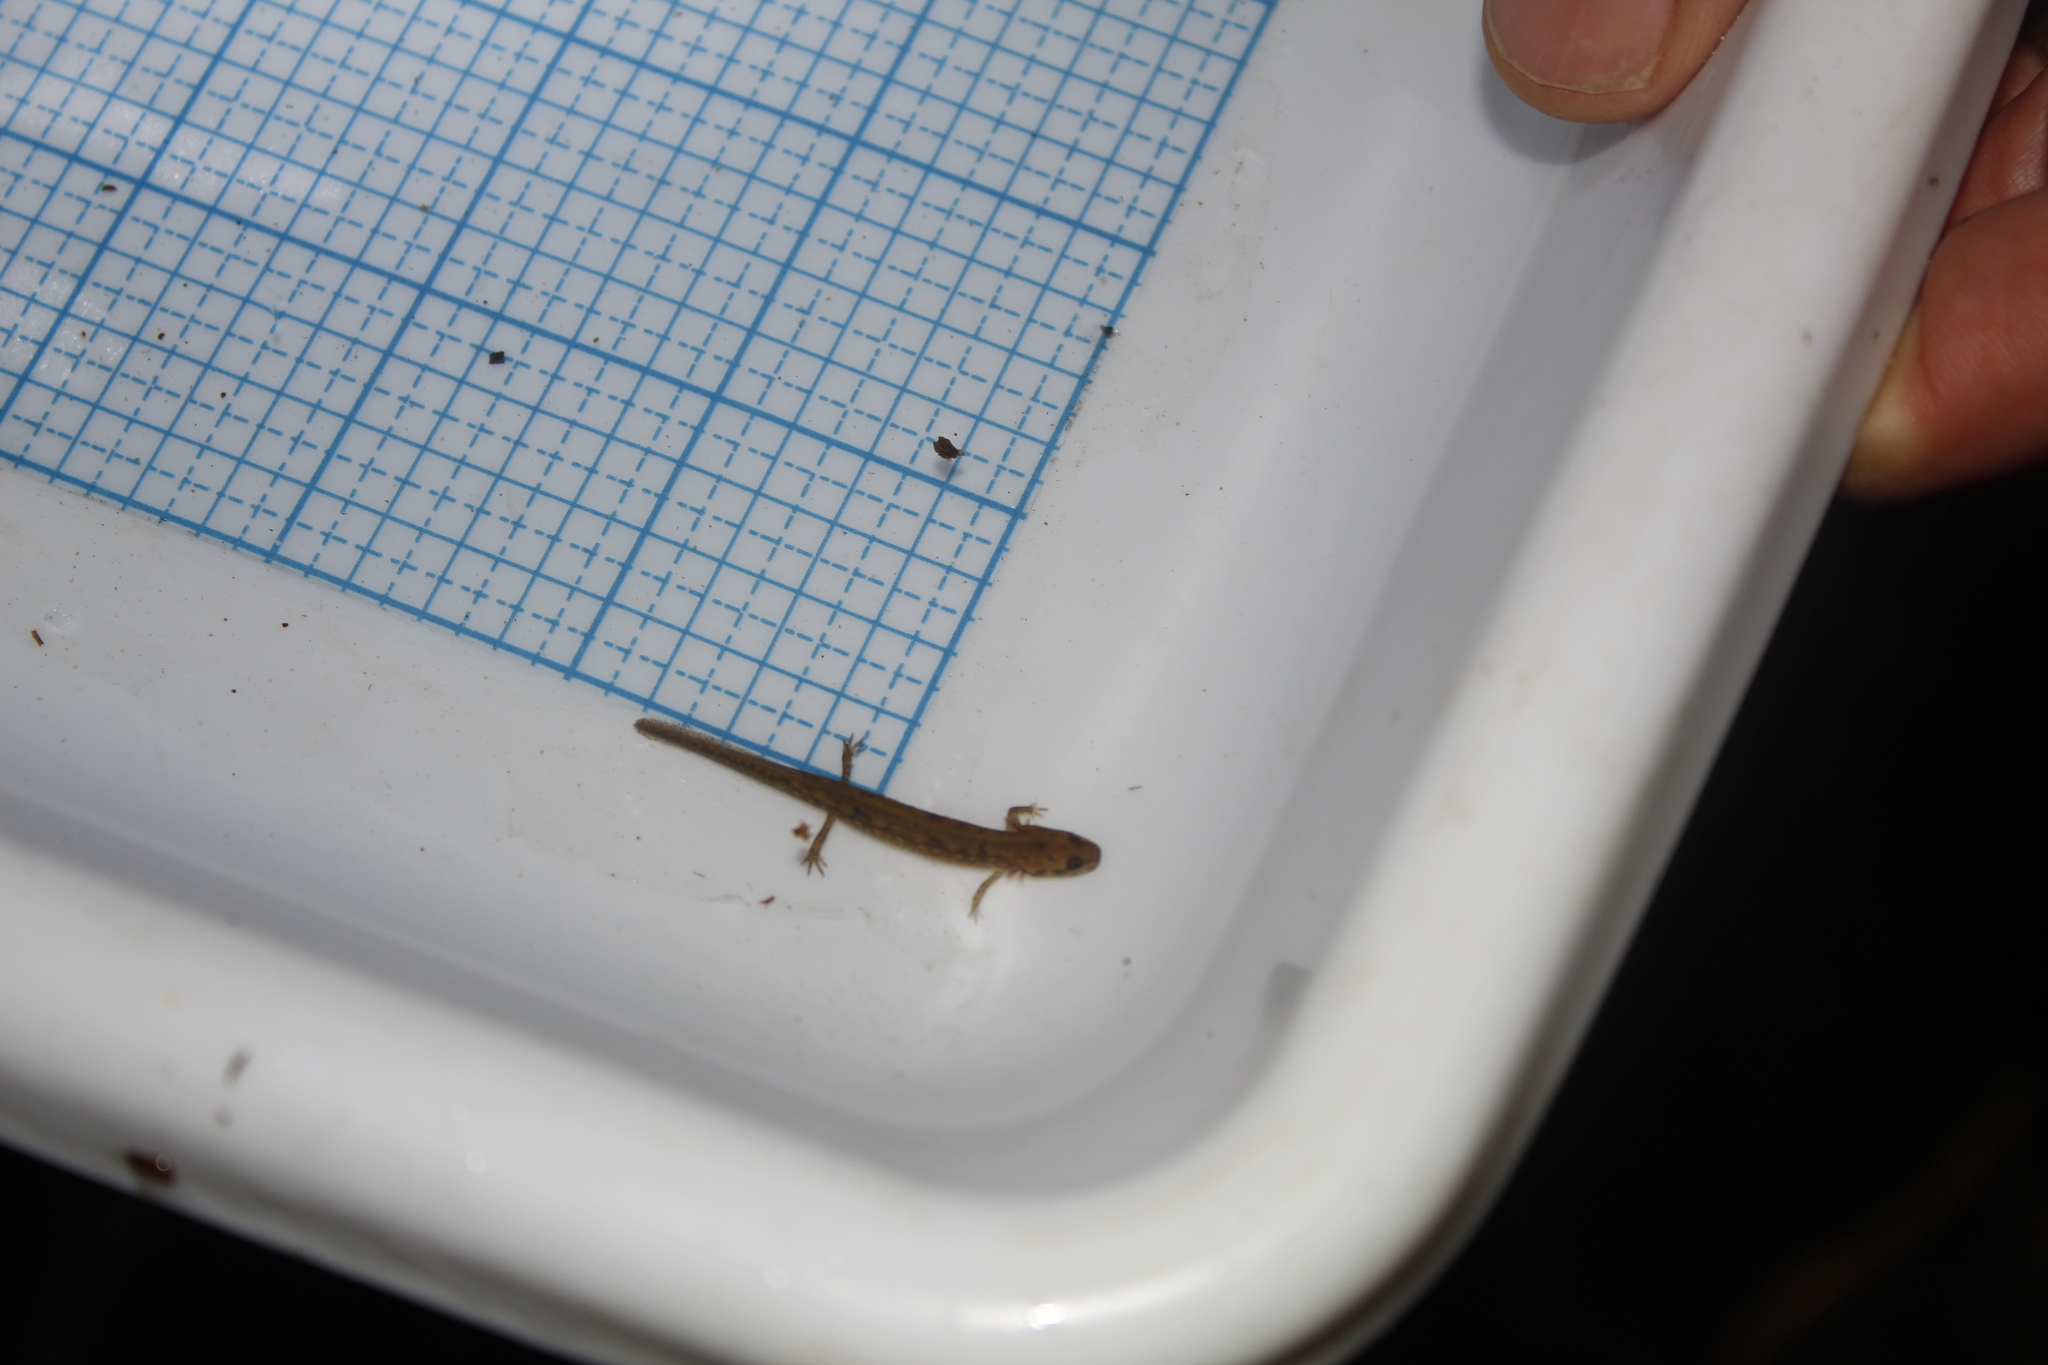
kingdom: Animalia
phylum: Chordata
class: Amphibia
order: Caudata
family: Plethodontidae
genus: Eurycea
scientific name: Eurycea bislineata
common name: Northern two-lined salamander
